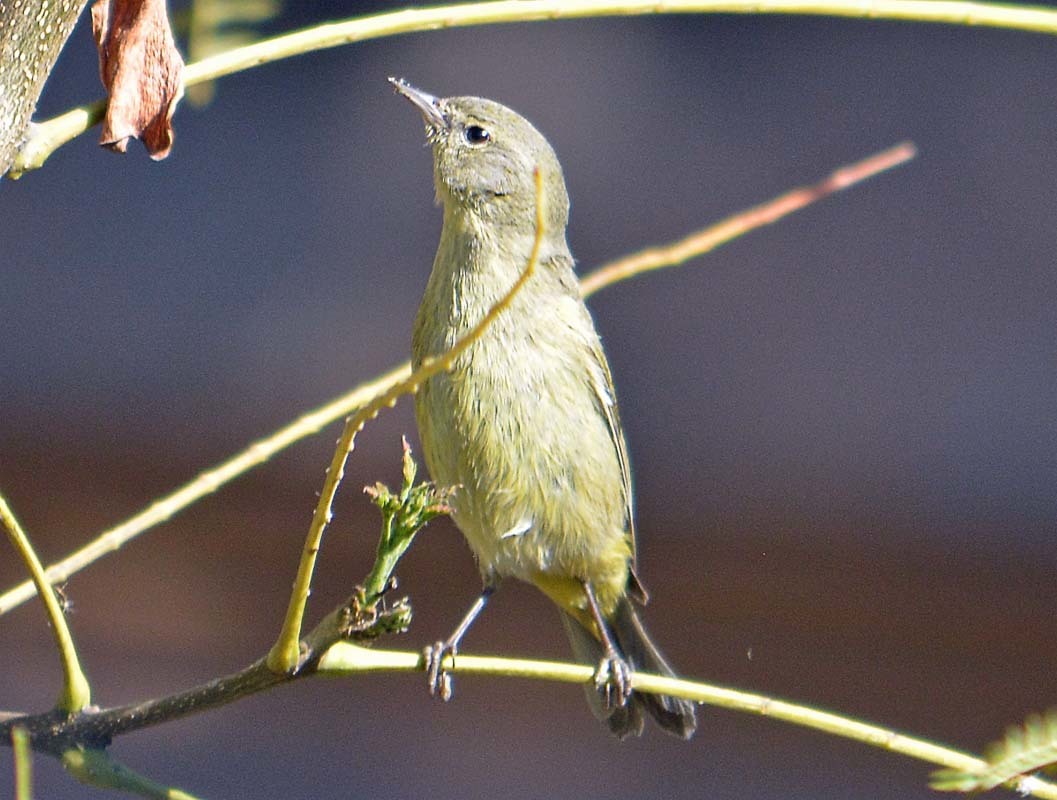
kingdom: Animalia
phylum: Chordata
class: Aves
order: Passeriformes
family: Parulidae
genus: Leiothlypis
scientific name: Leiothlypis celata
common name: Orange-crowned warbler
